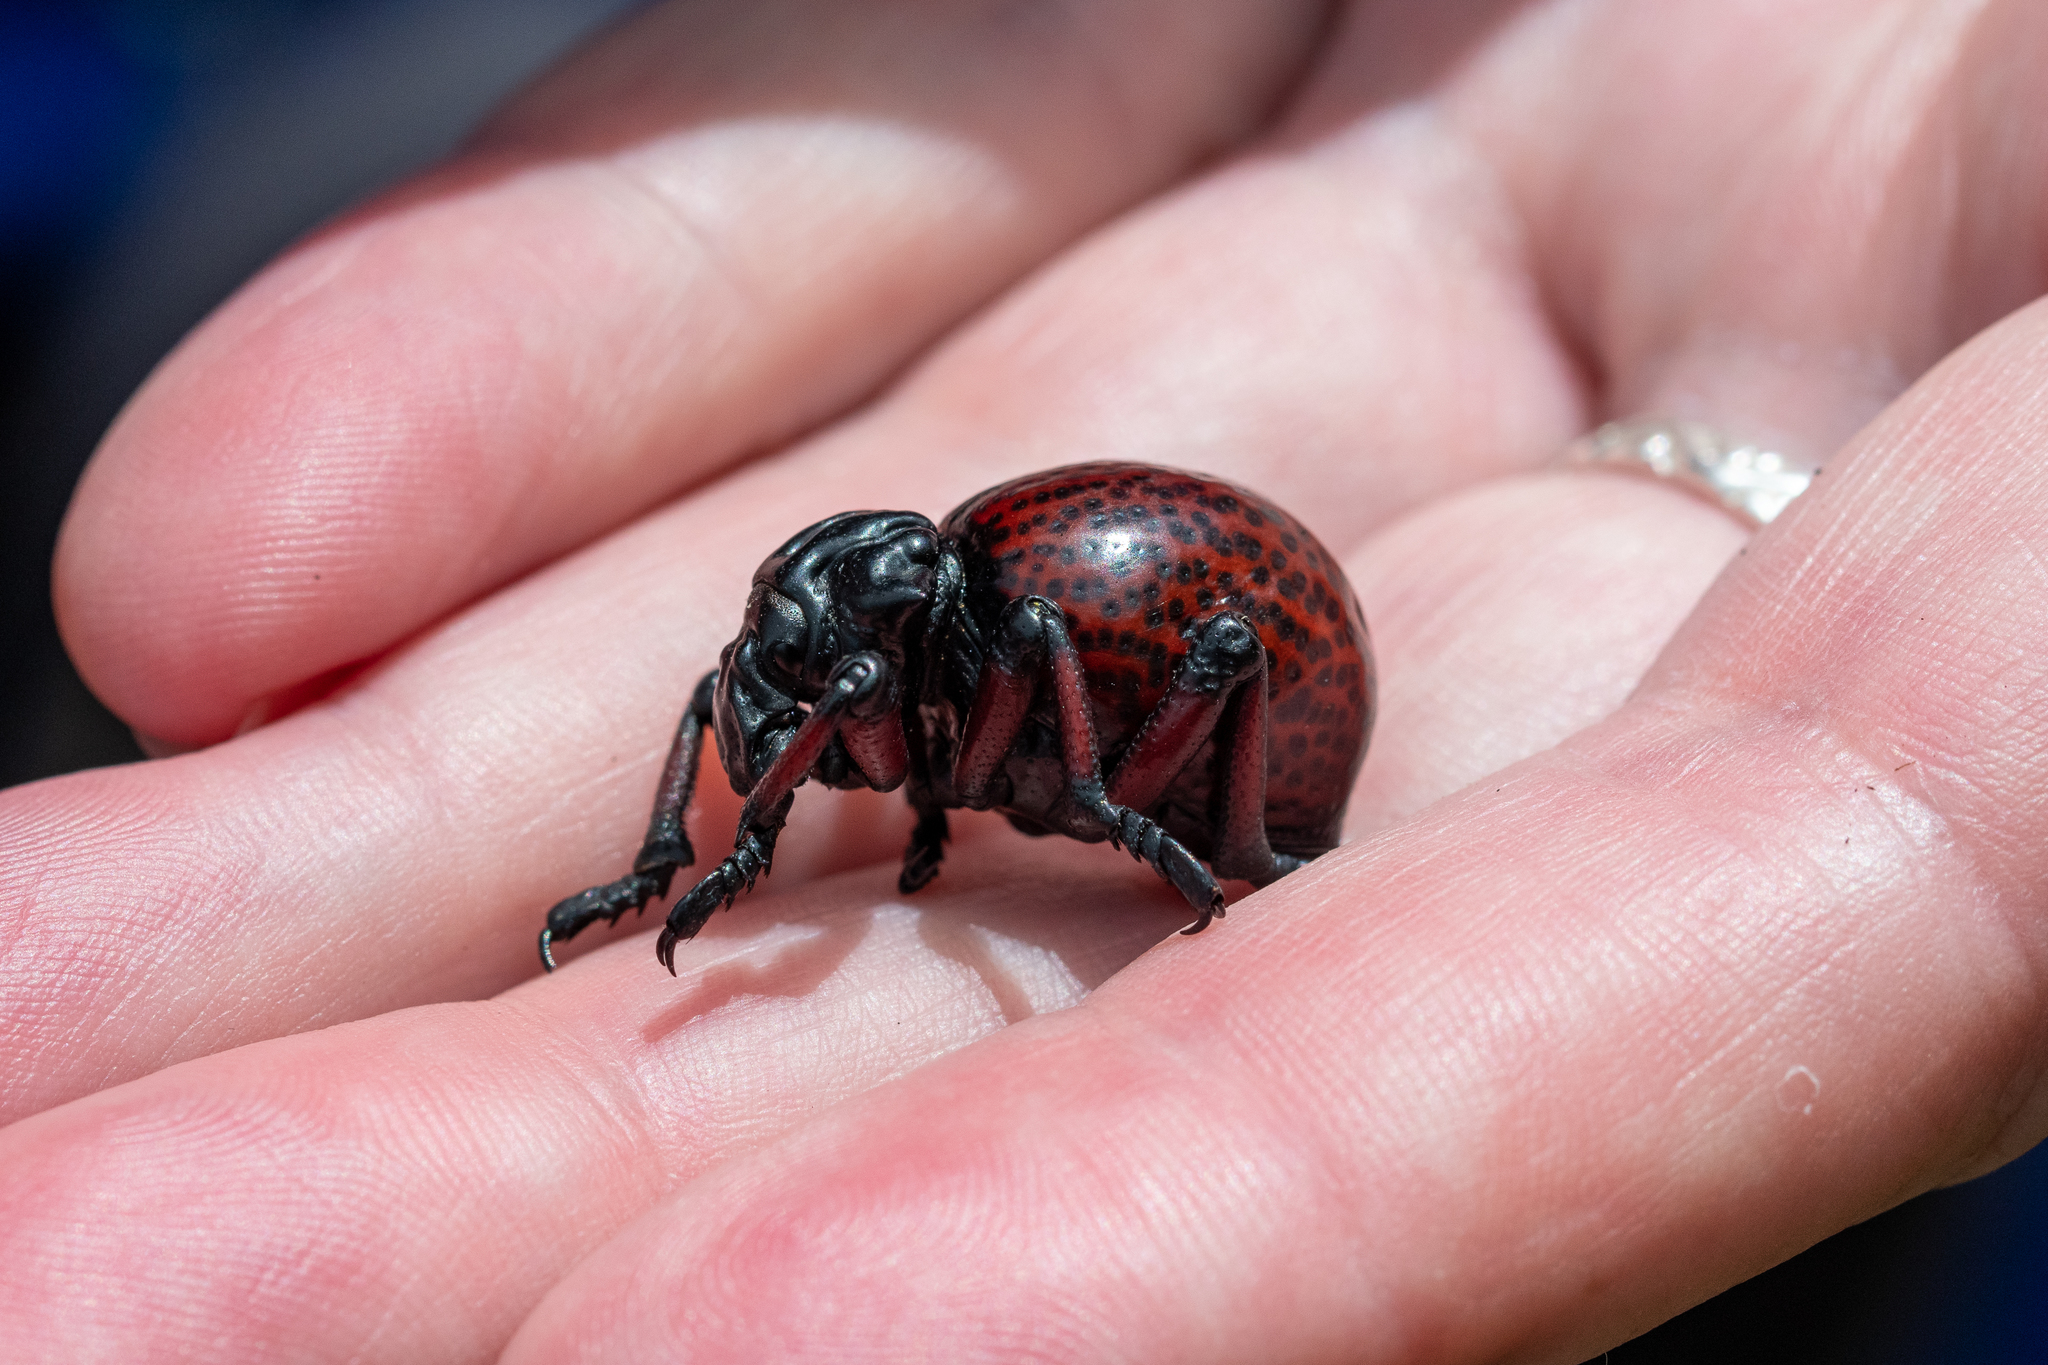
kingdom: Animalia
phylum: Arthropoda
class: Insecta
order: Coleoptera
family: Brachyceridae
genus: Brachycerus
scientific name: Brachycerus obesus
